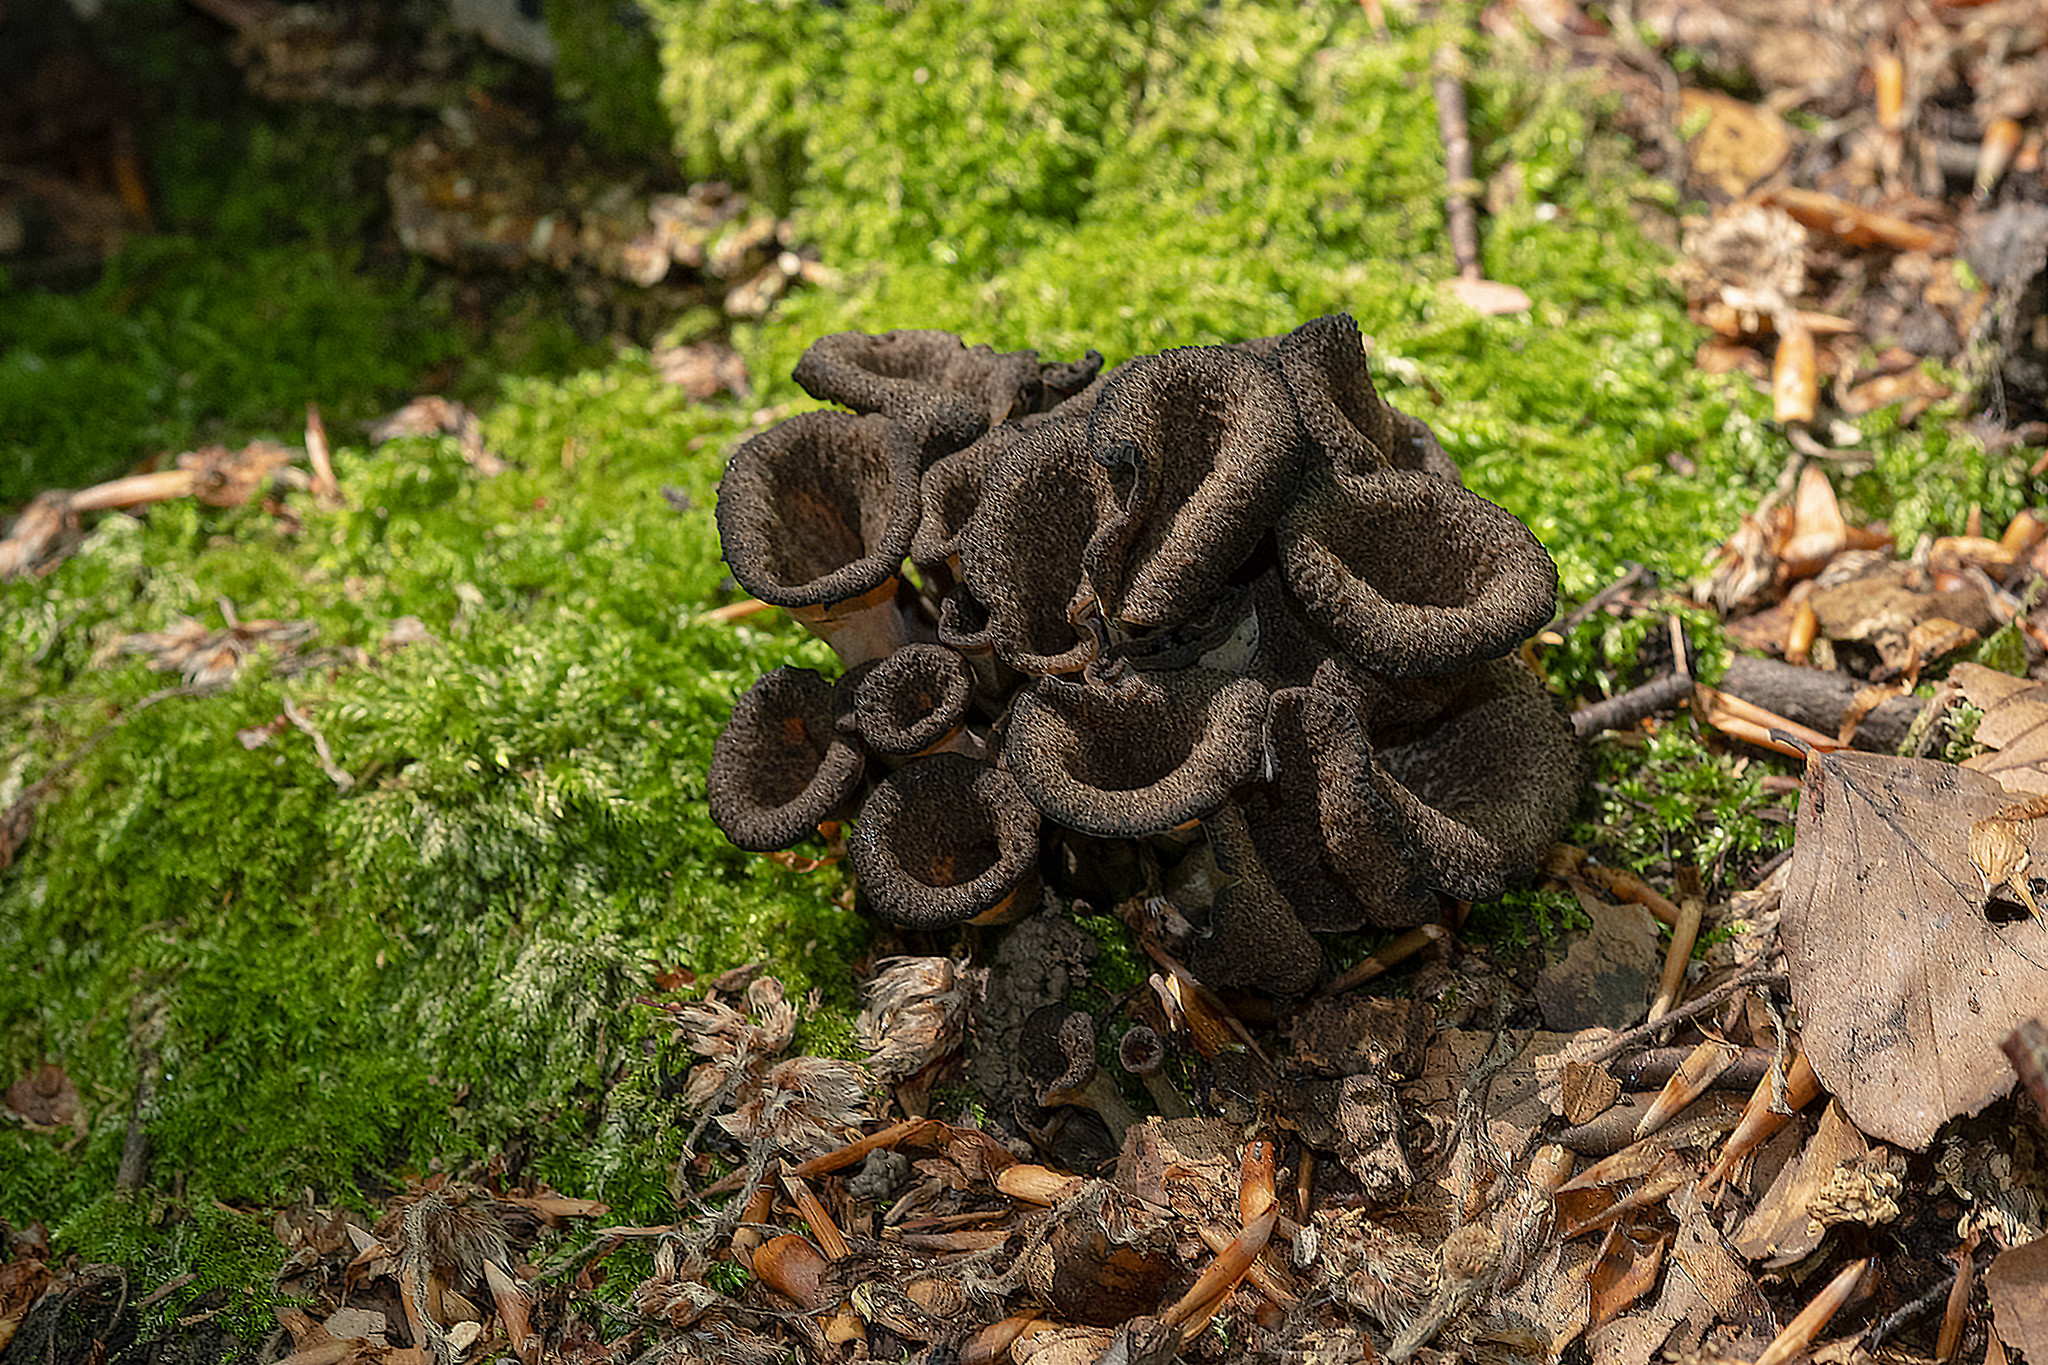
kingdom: Fungi
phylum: Basidiomycota
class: Agaricomycetes
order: Cantharellales
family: Hydnaceae
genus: Craterellus
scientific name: Craterellus cornucopioides
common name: Horn of plenty
